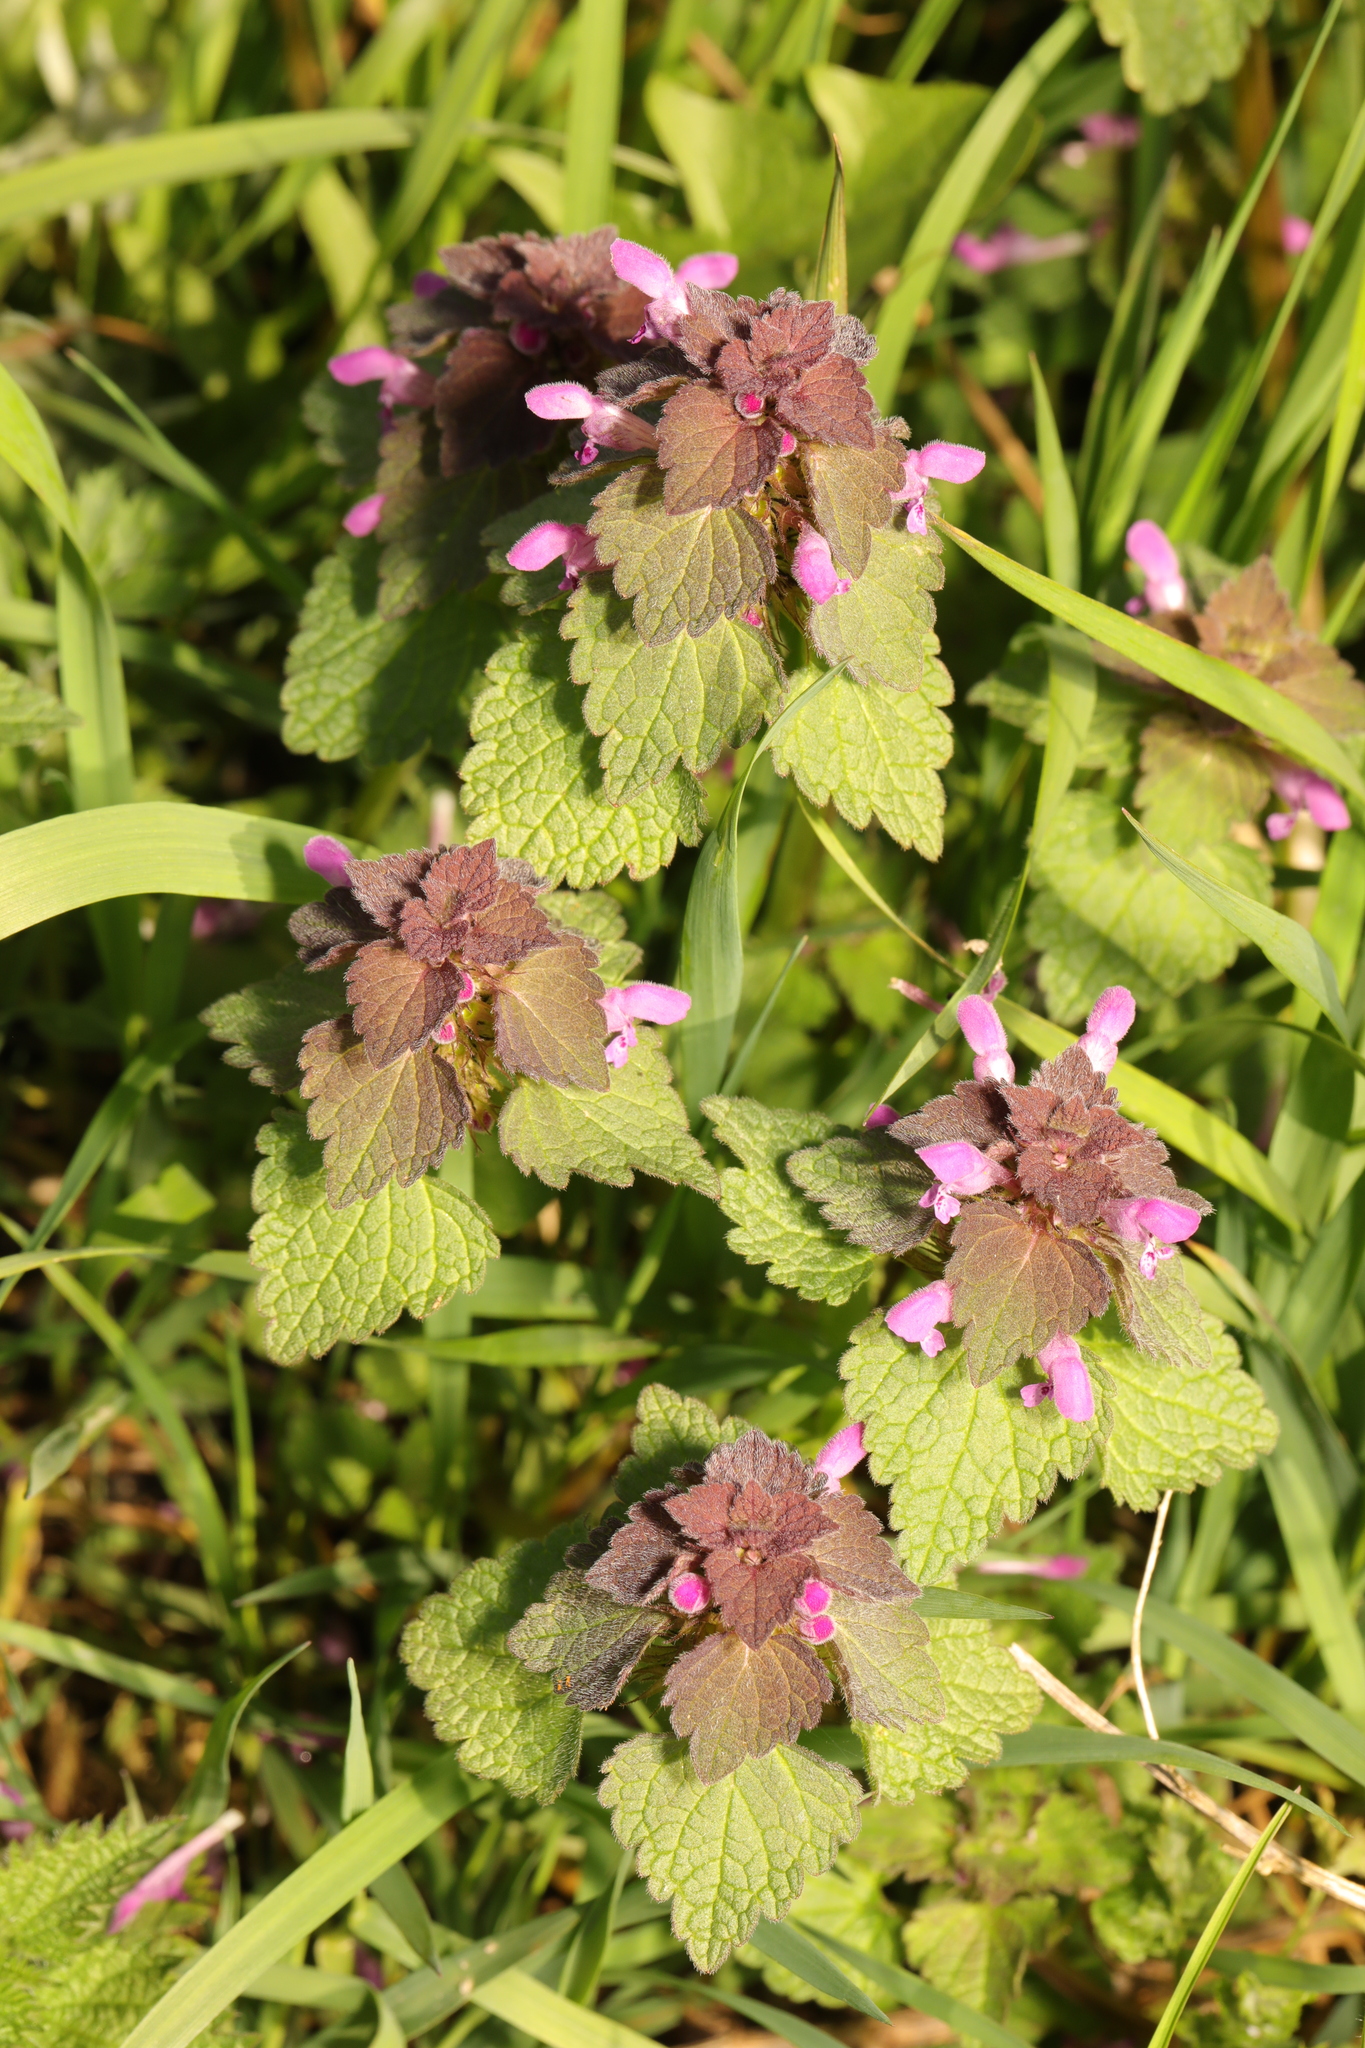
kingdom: Plantae
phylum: Tracheophyta
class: Magnoliopsida
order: Lamiales
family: Lamiaceae
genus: Lamium
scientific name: Lamium purpureum
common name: Red dead-nettle
